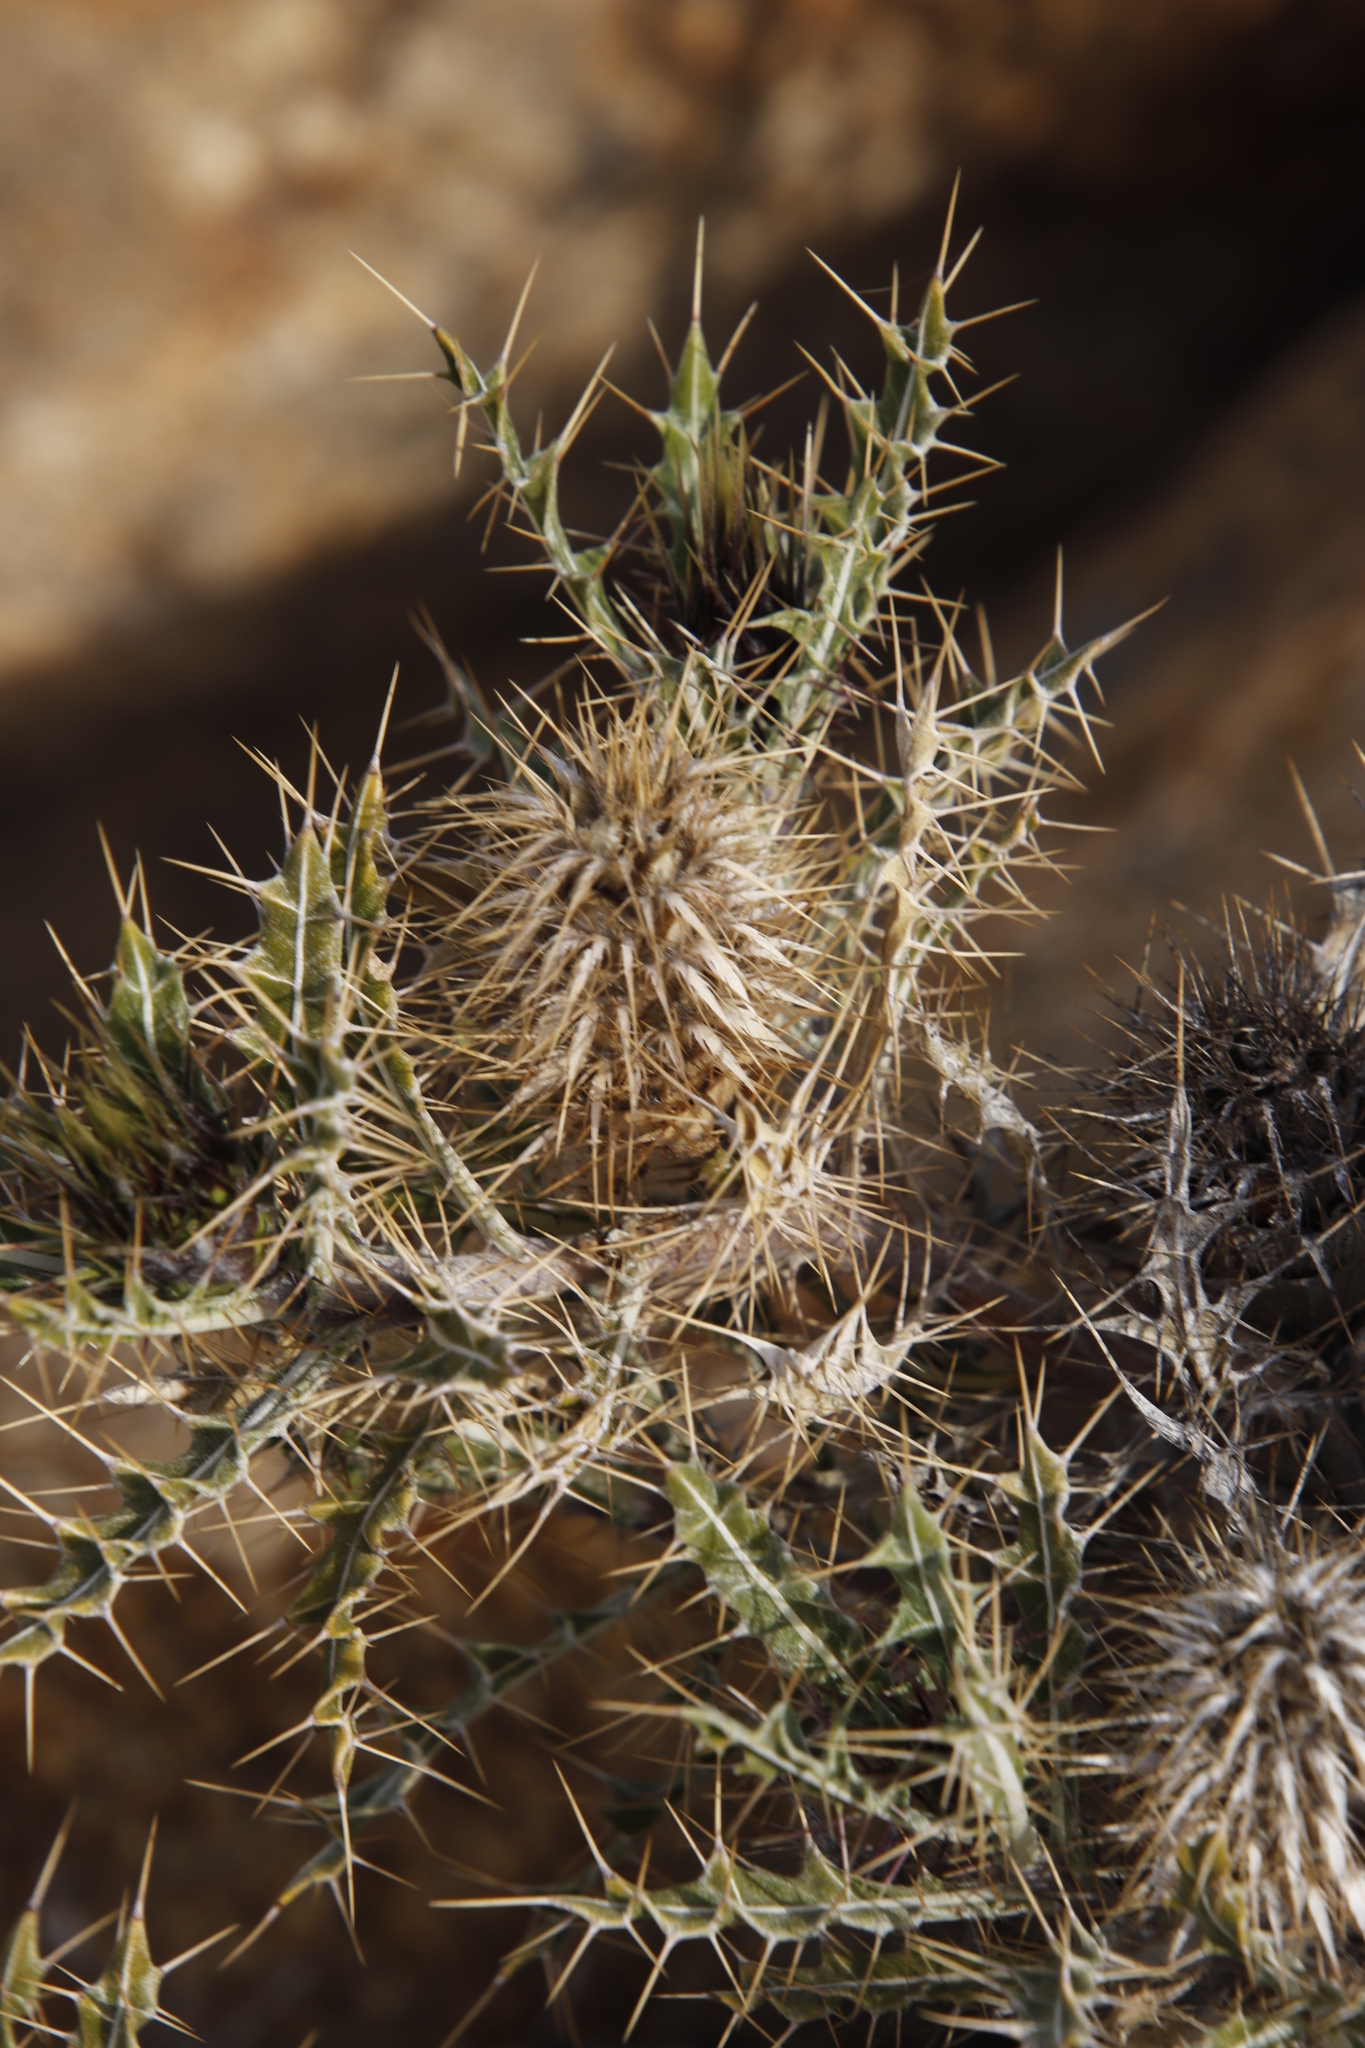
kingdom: Plantae
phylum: Tracheophyta
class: Magnoliopsida
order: Lamiales
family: Acanthaceae
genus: Acanthopsis
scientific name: Acanthopsis horrida
